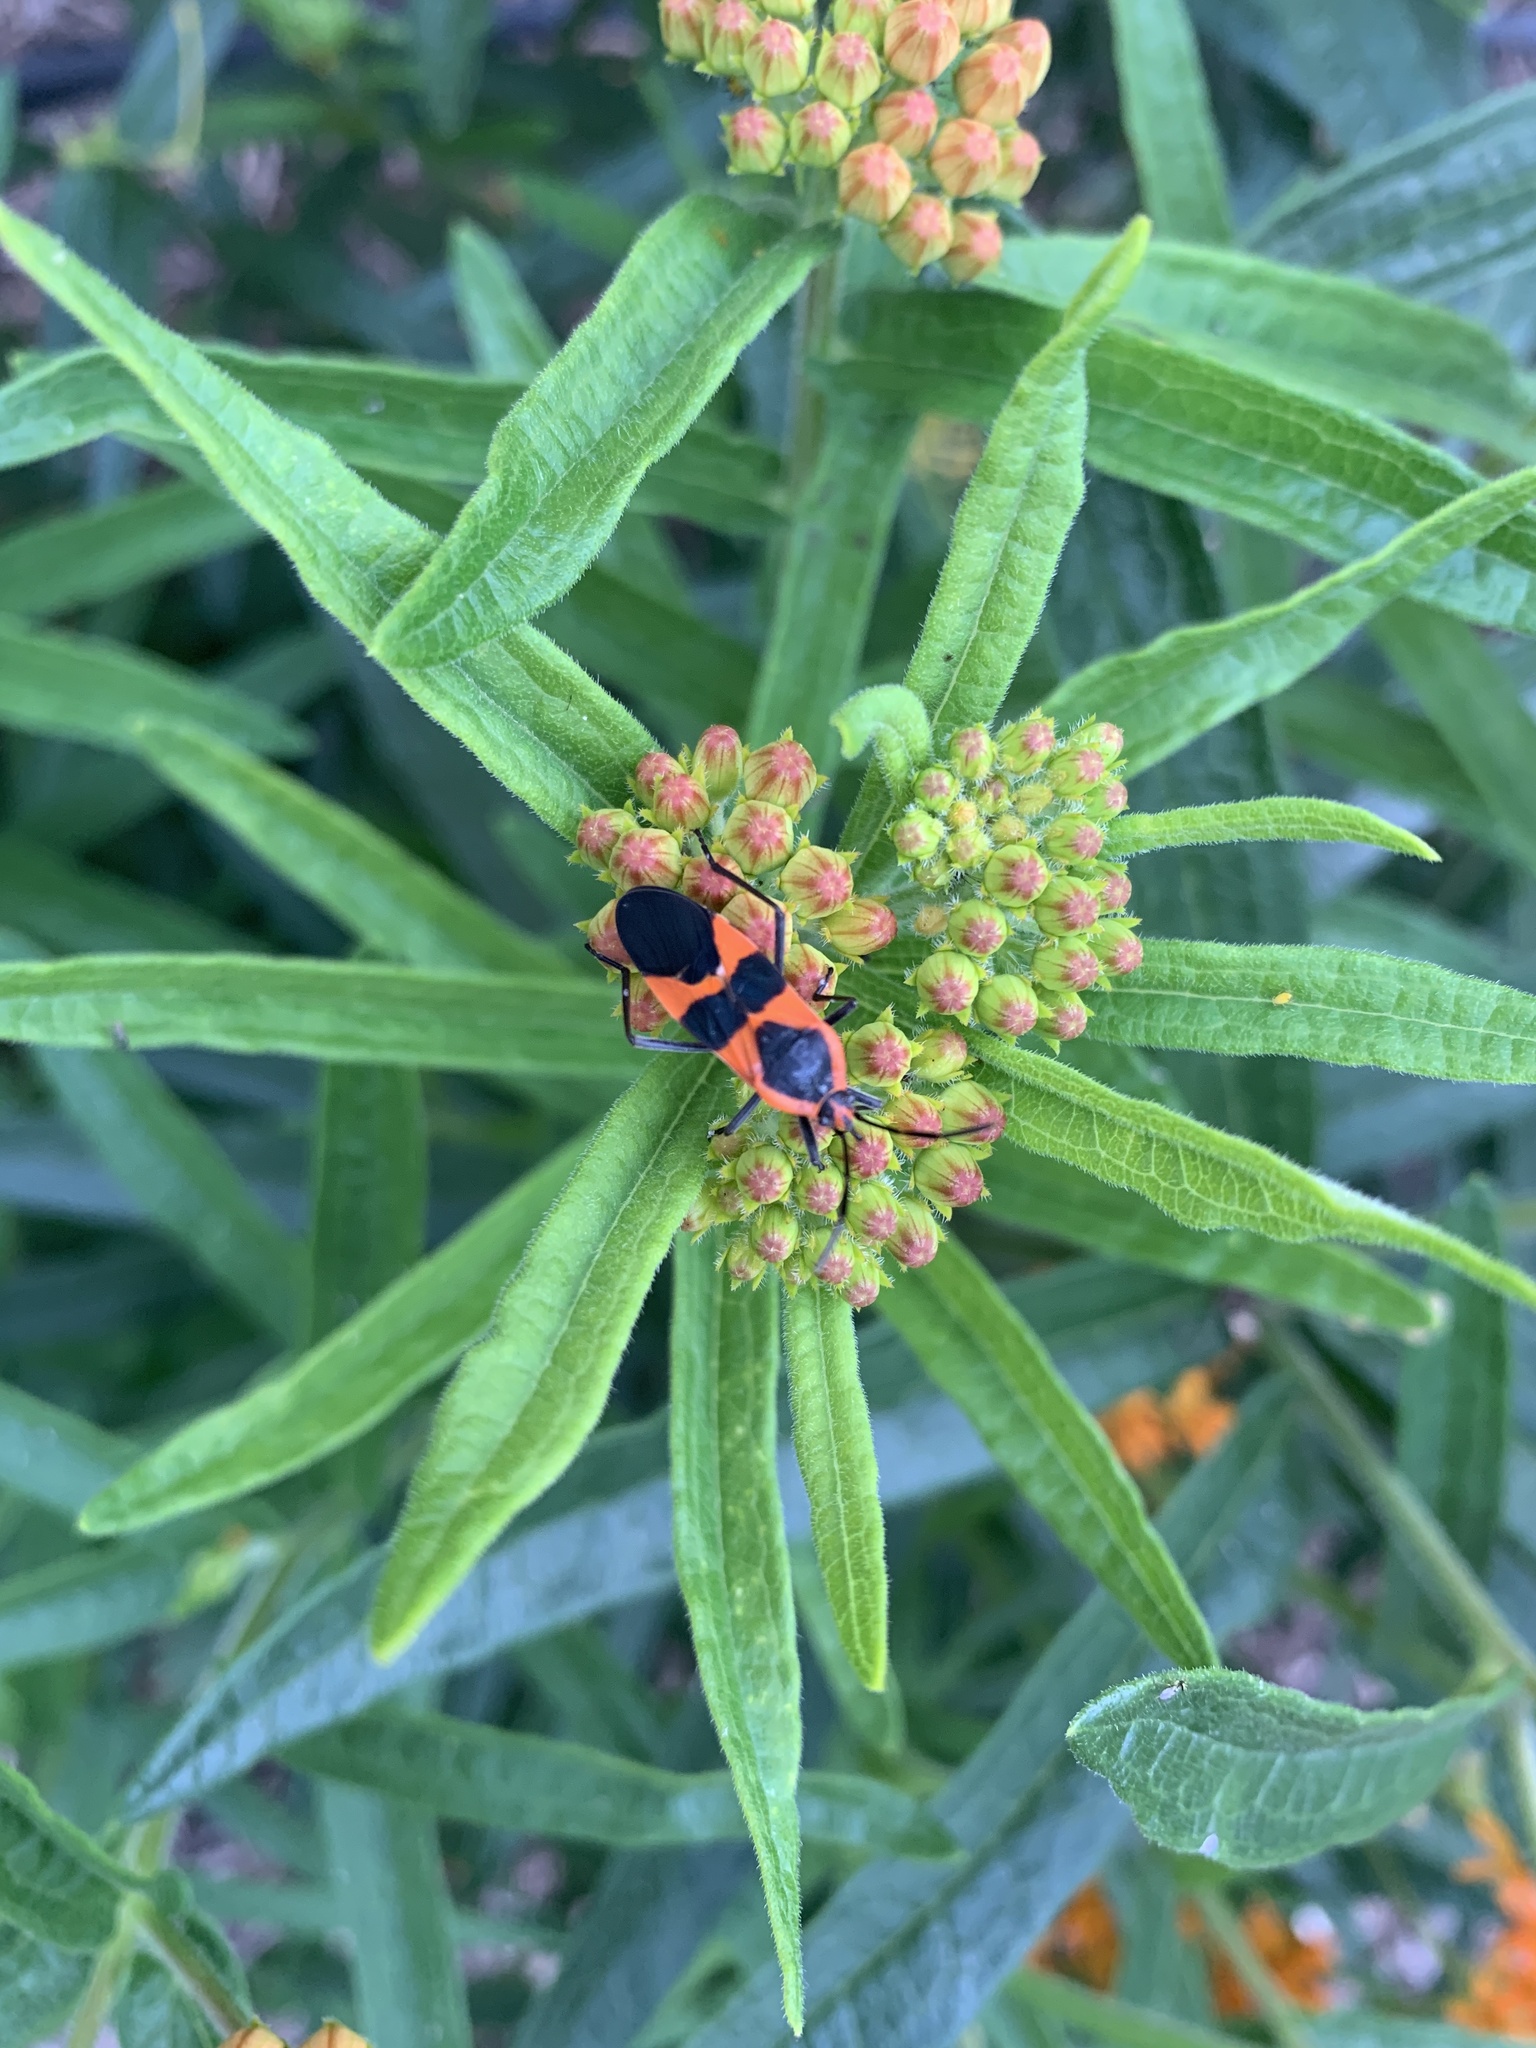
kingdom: Animalia
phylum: Arthropoda
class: Insecta
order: Hemiptera
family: Lygaeidae
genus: Oncopeltus
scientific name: Oncopeltus fasciatus
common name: Large milkweed bug
